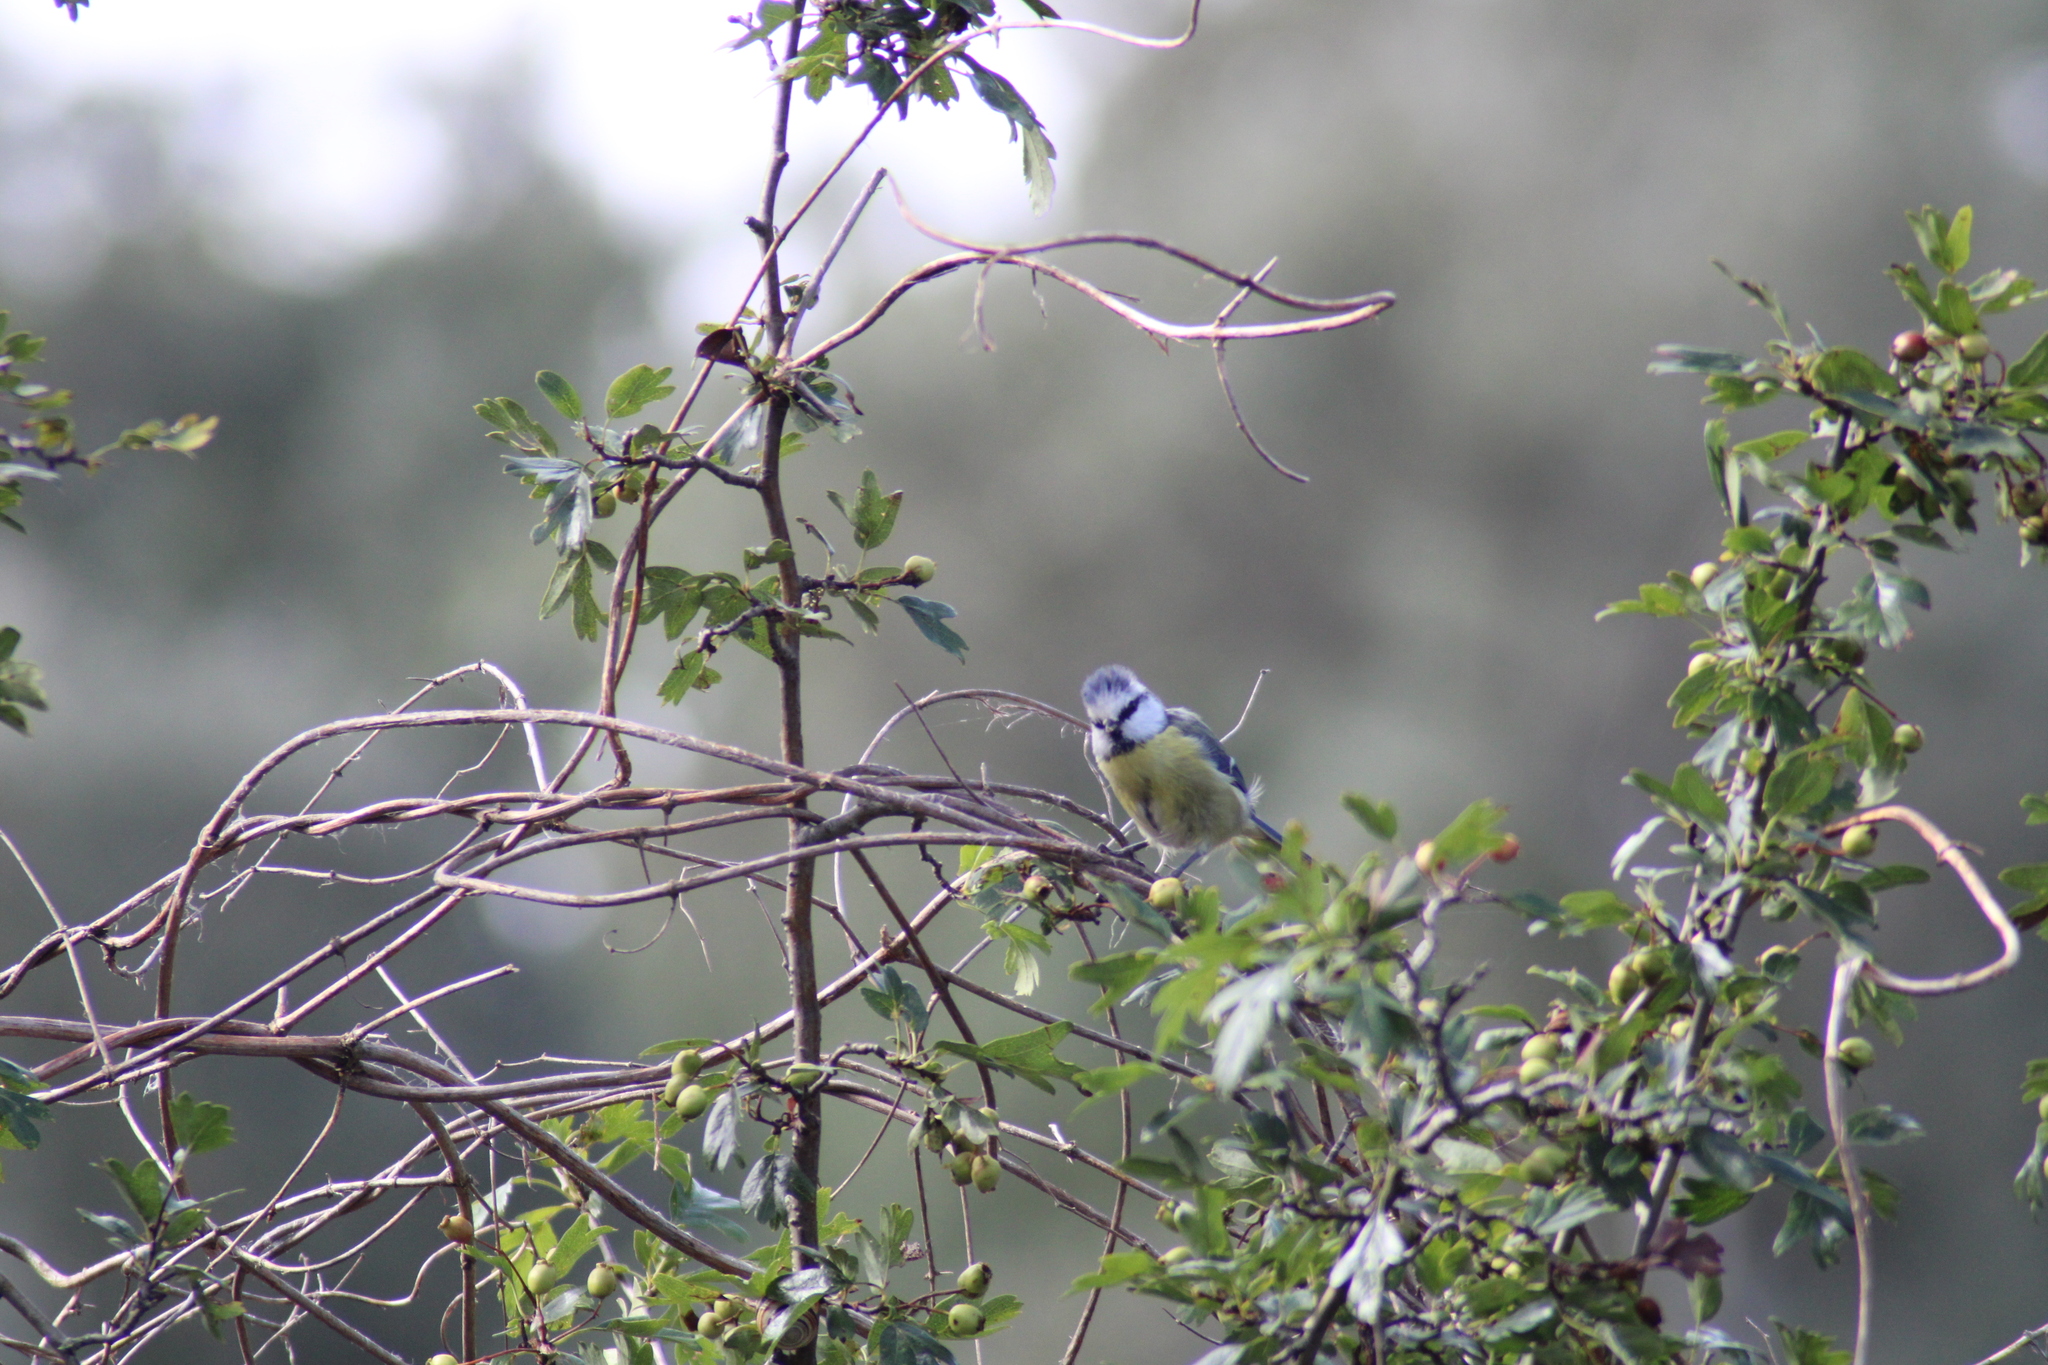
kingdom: Animalia
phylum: Chordata
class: Aves
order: Passeriformes
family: Paridae
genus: Cyanistes
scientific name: Cyanistes caeruleus
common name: Eurasian blue tit
